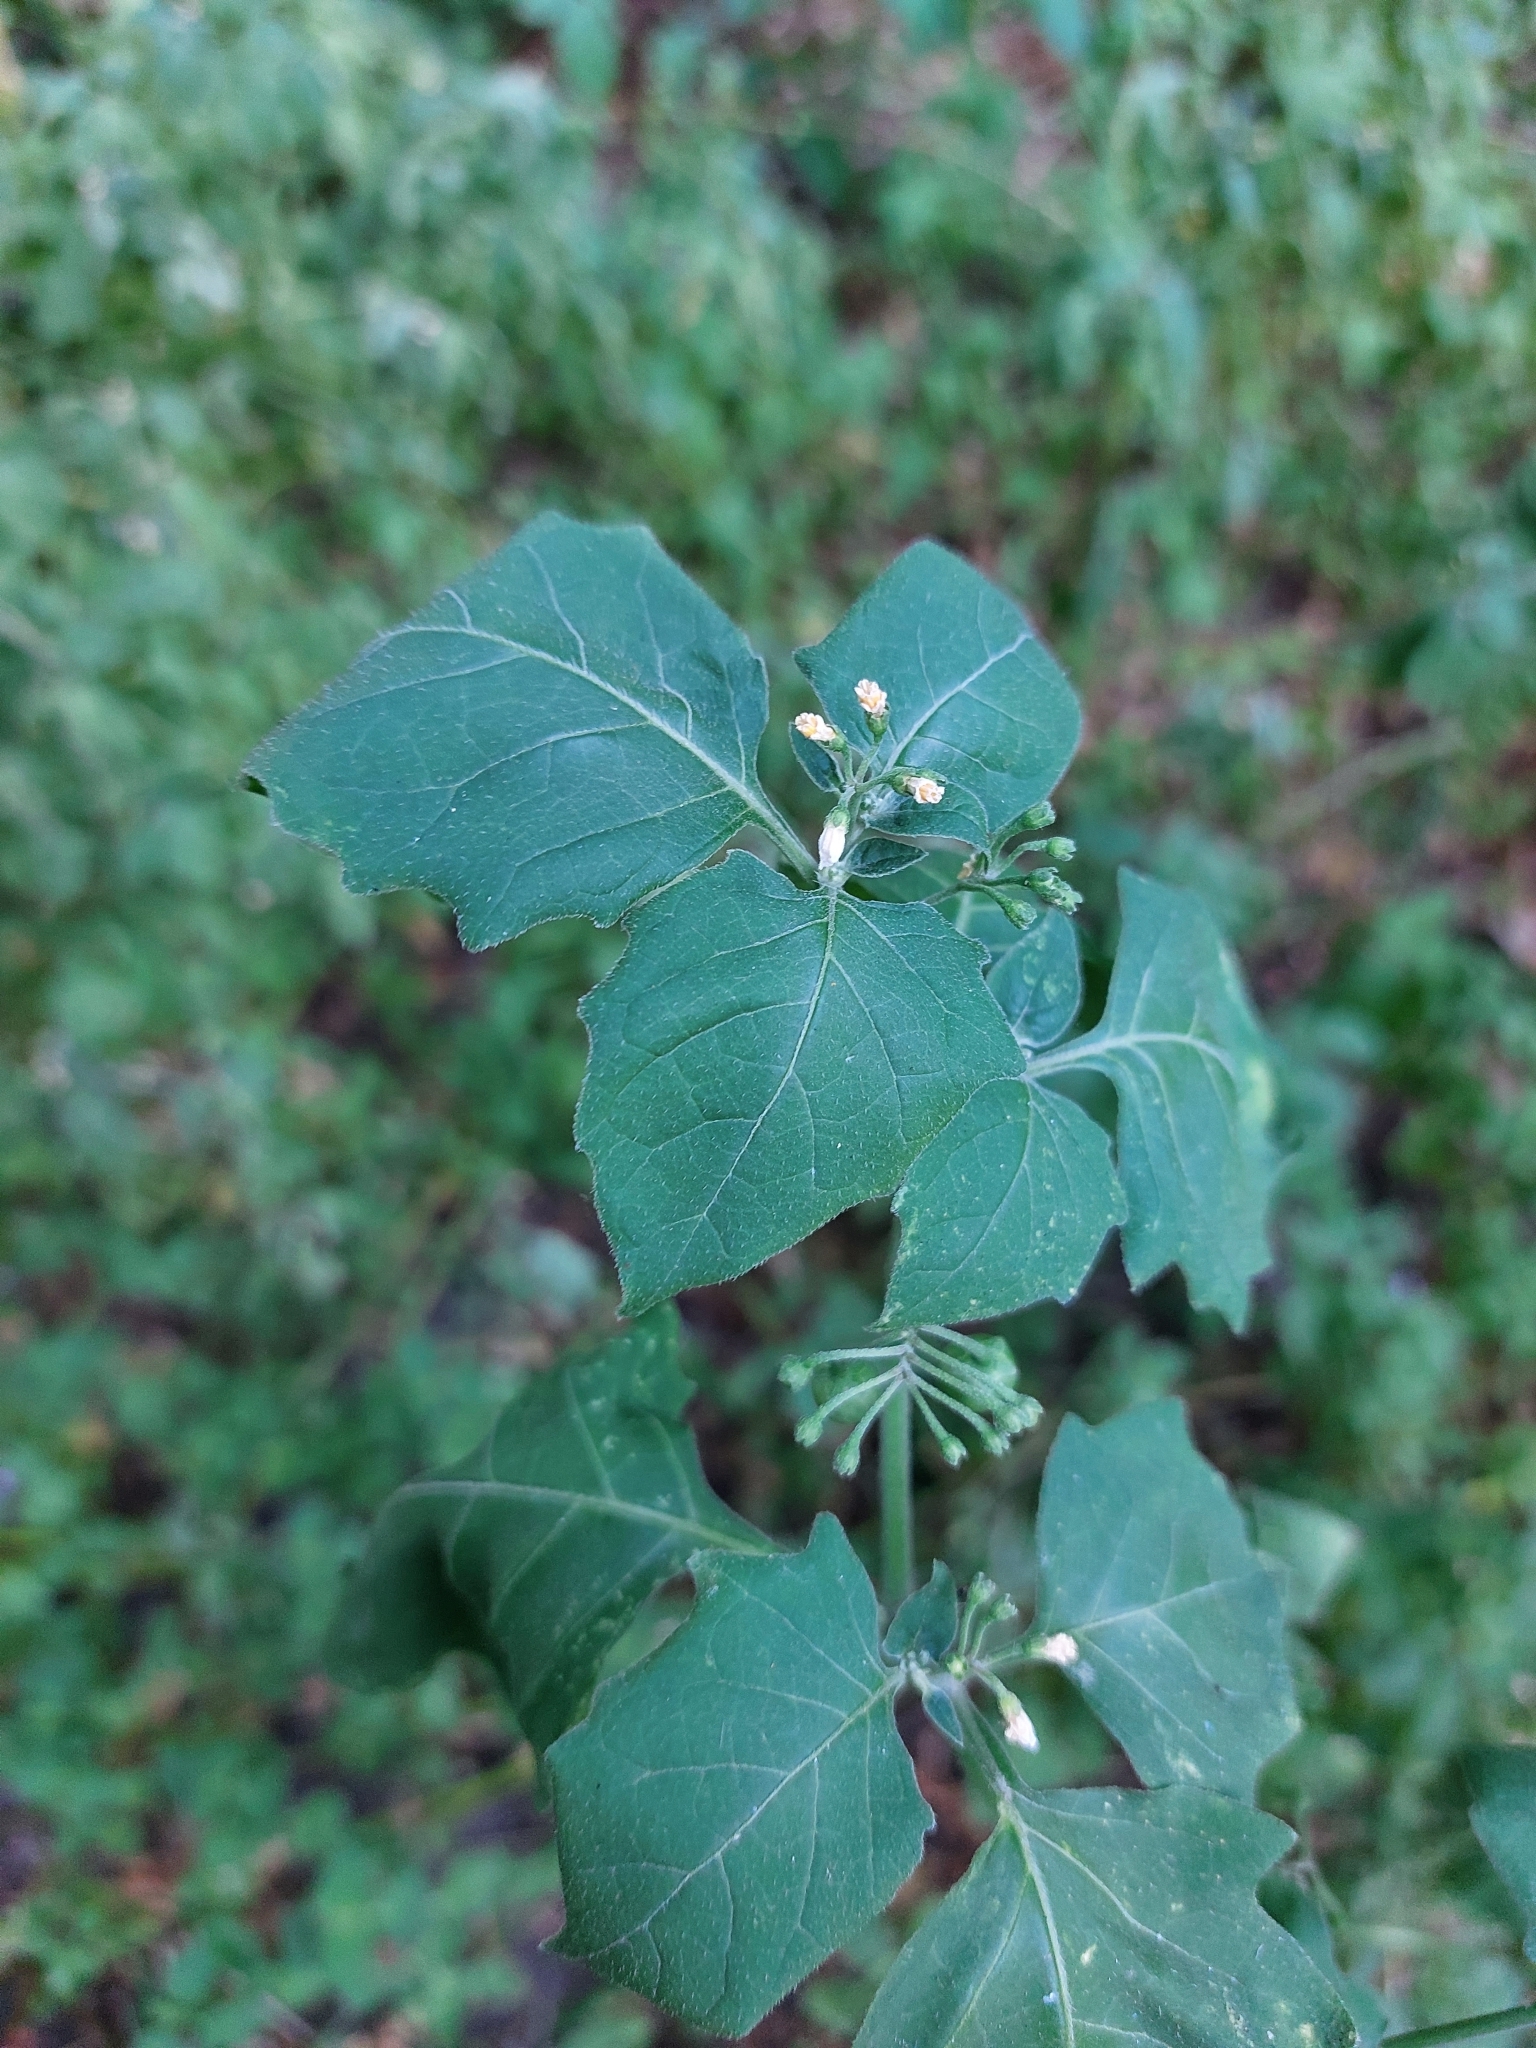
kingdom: Plantae
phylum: Tracheophyta
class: Magnoliopsida
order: Solanales
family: Solanaceae
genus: Solanum
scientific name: Solanum nigrum
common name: Black nightshade
